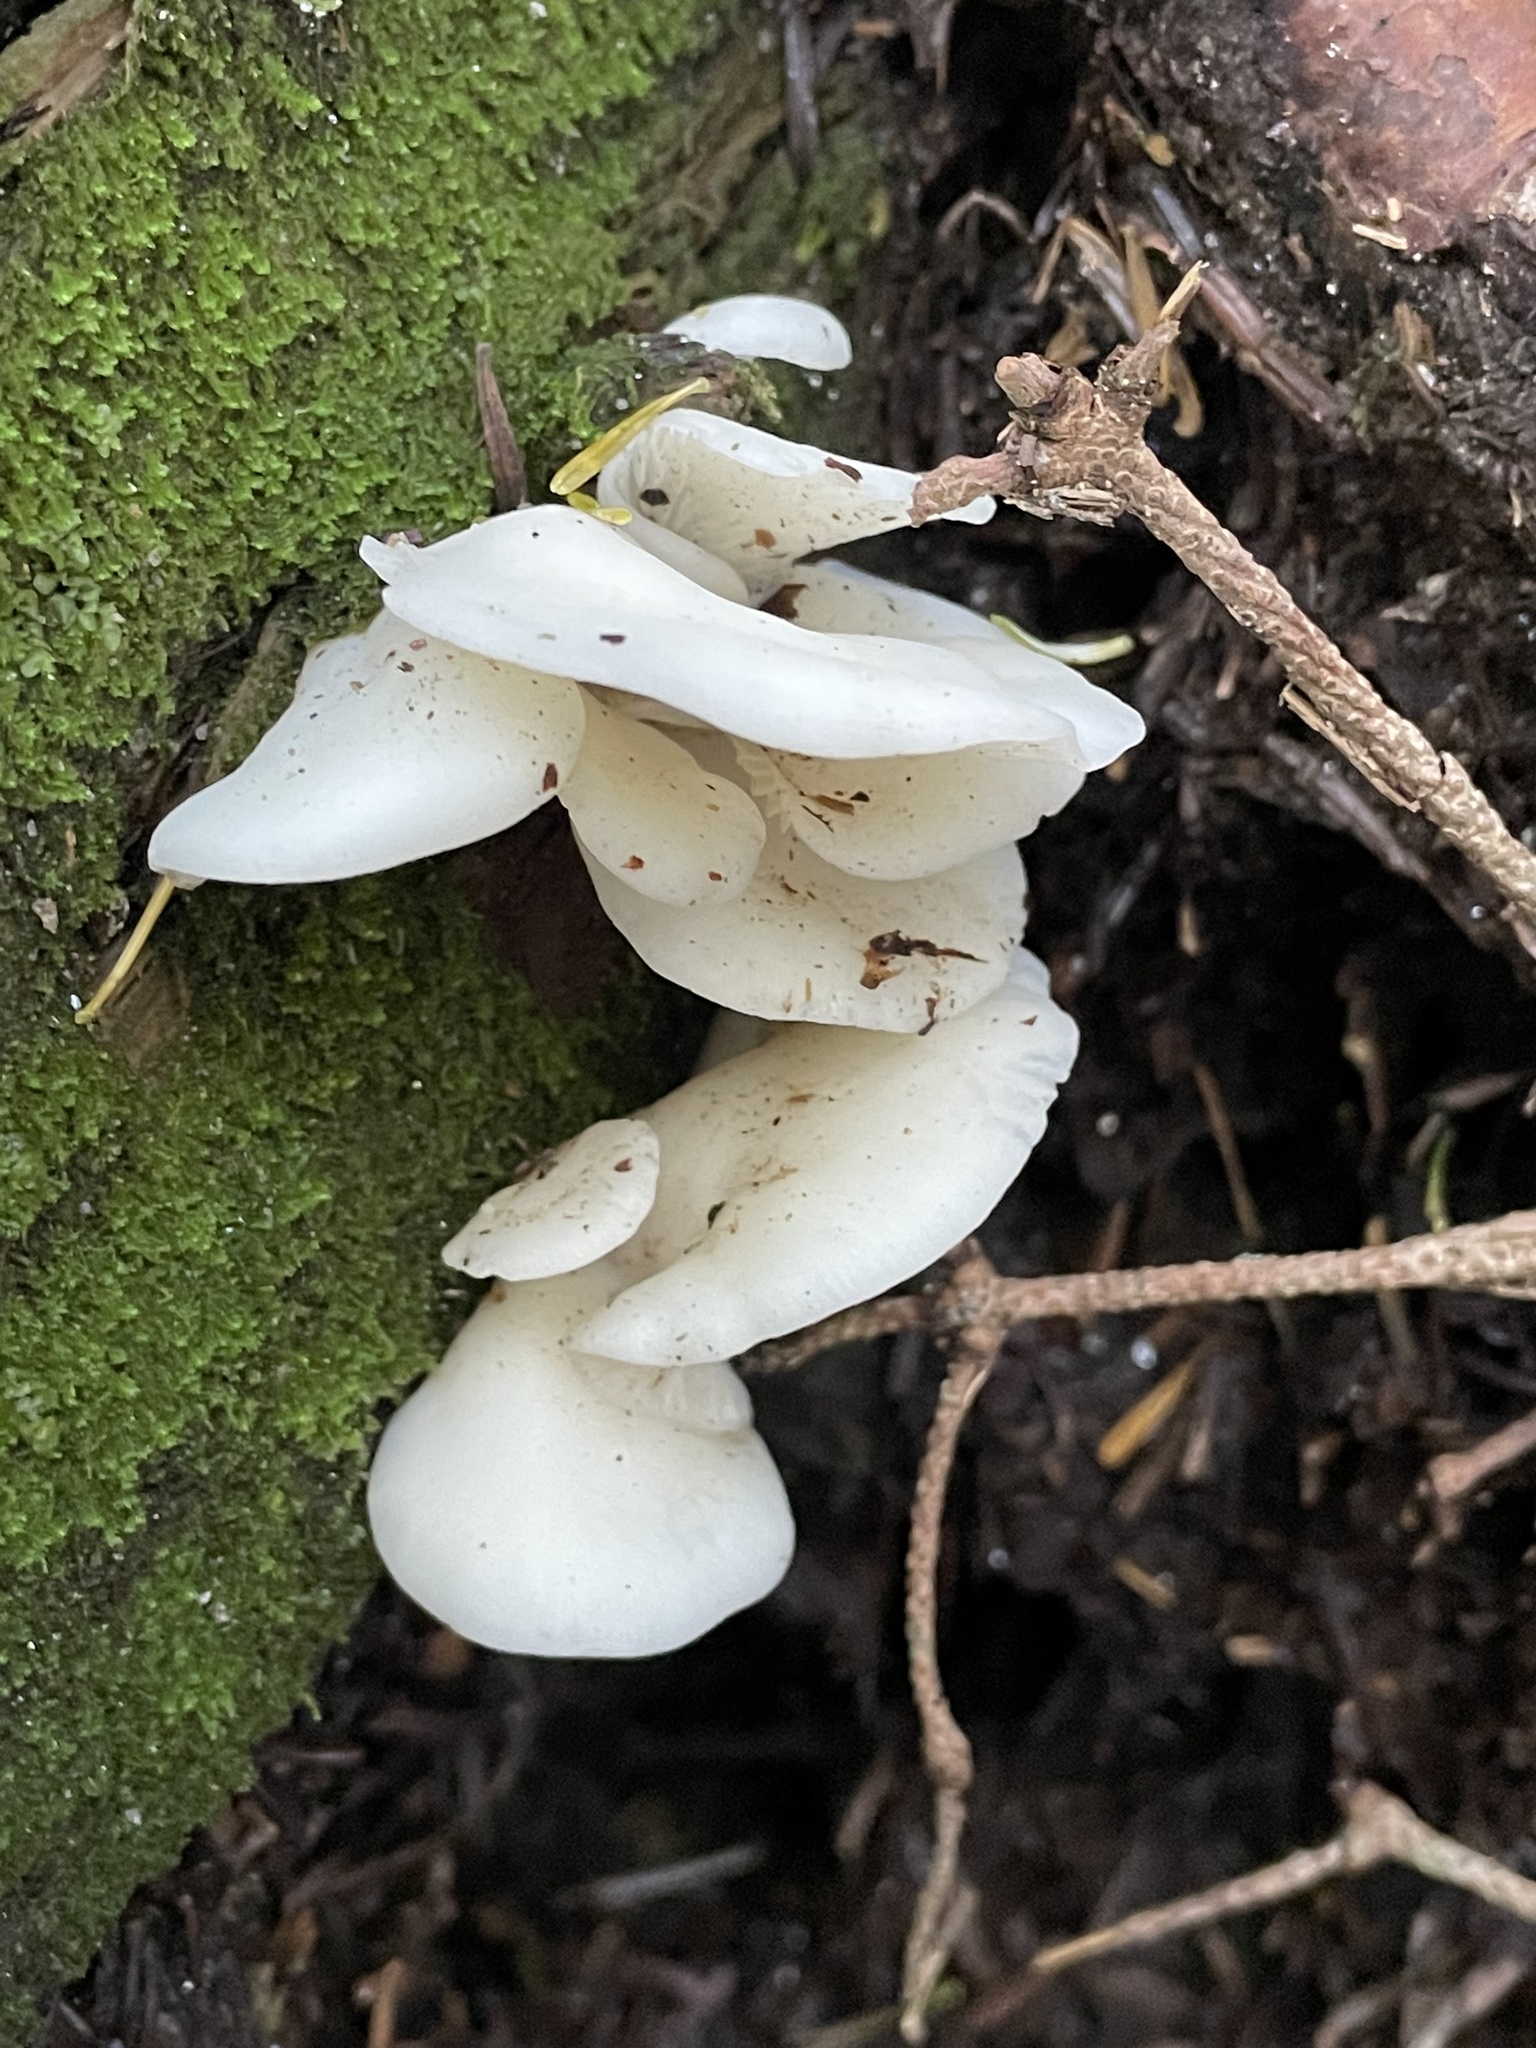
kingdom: Fungi
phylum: Basidiomycota
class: Agaricomycetes
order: Agaricales
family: Marasmiaceae
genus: Pleurocybella
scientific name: Pleurocybella porrigens
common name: Angel's wings
